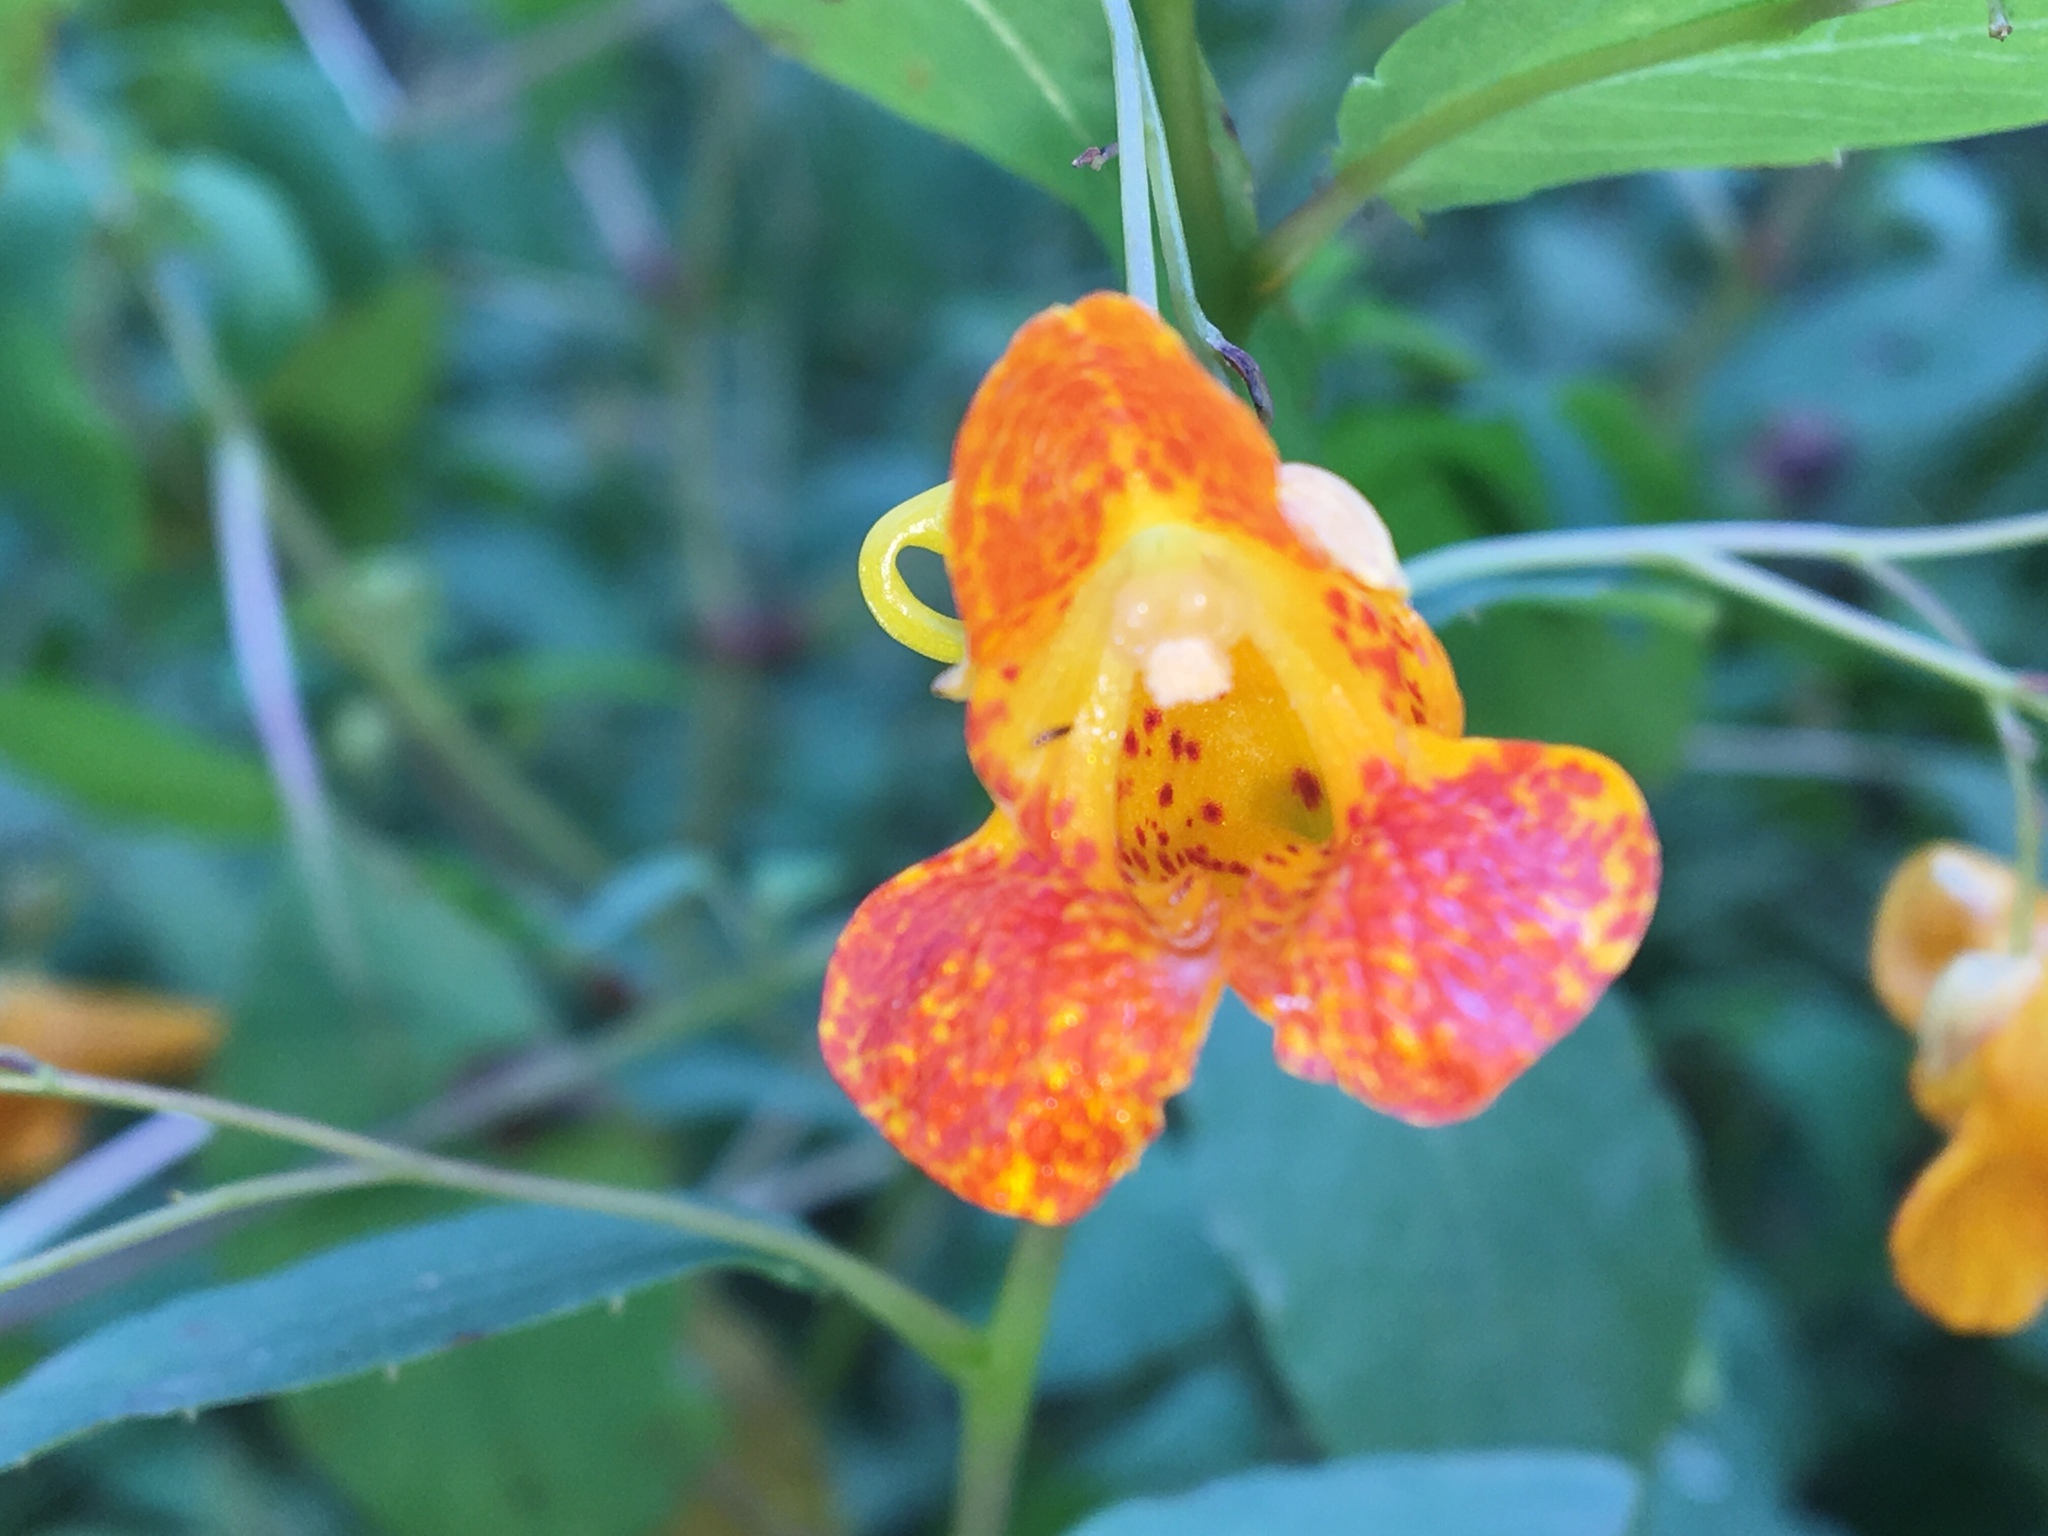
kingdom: Plantae
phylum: Tracheophyta
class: Magnoliopsida
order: Ericales
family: Balsaminaceae
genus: Impatiens
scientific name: Impatiens capensis
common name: Orange balsam
